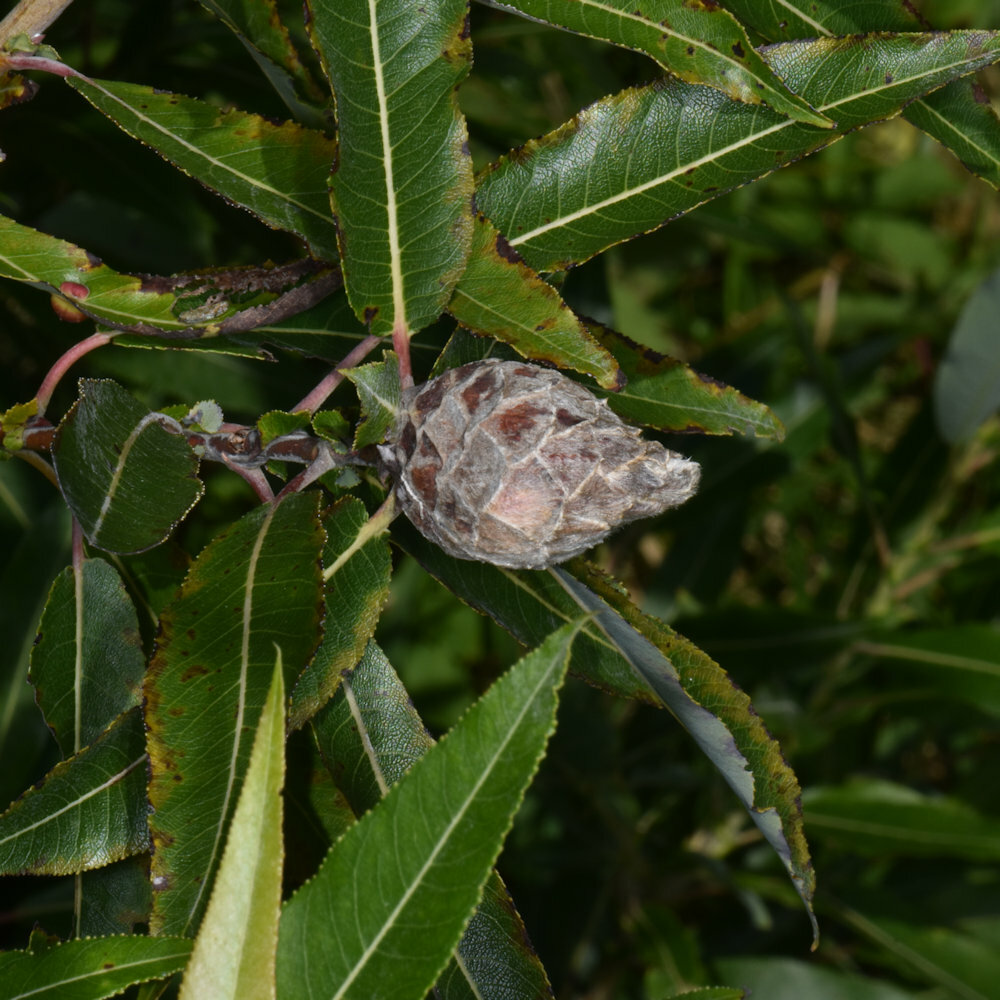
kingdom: Animalia
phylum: Arthropoda
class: Insecta
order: Diptera
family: Cecidomyiidae
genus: Rabdophaga
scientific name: Rabdophaga strobiloides
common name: Willow pinecone gall midge
